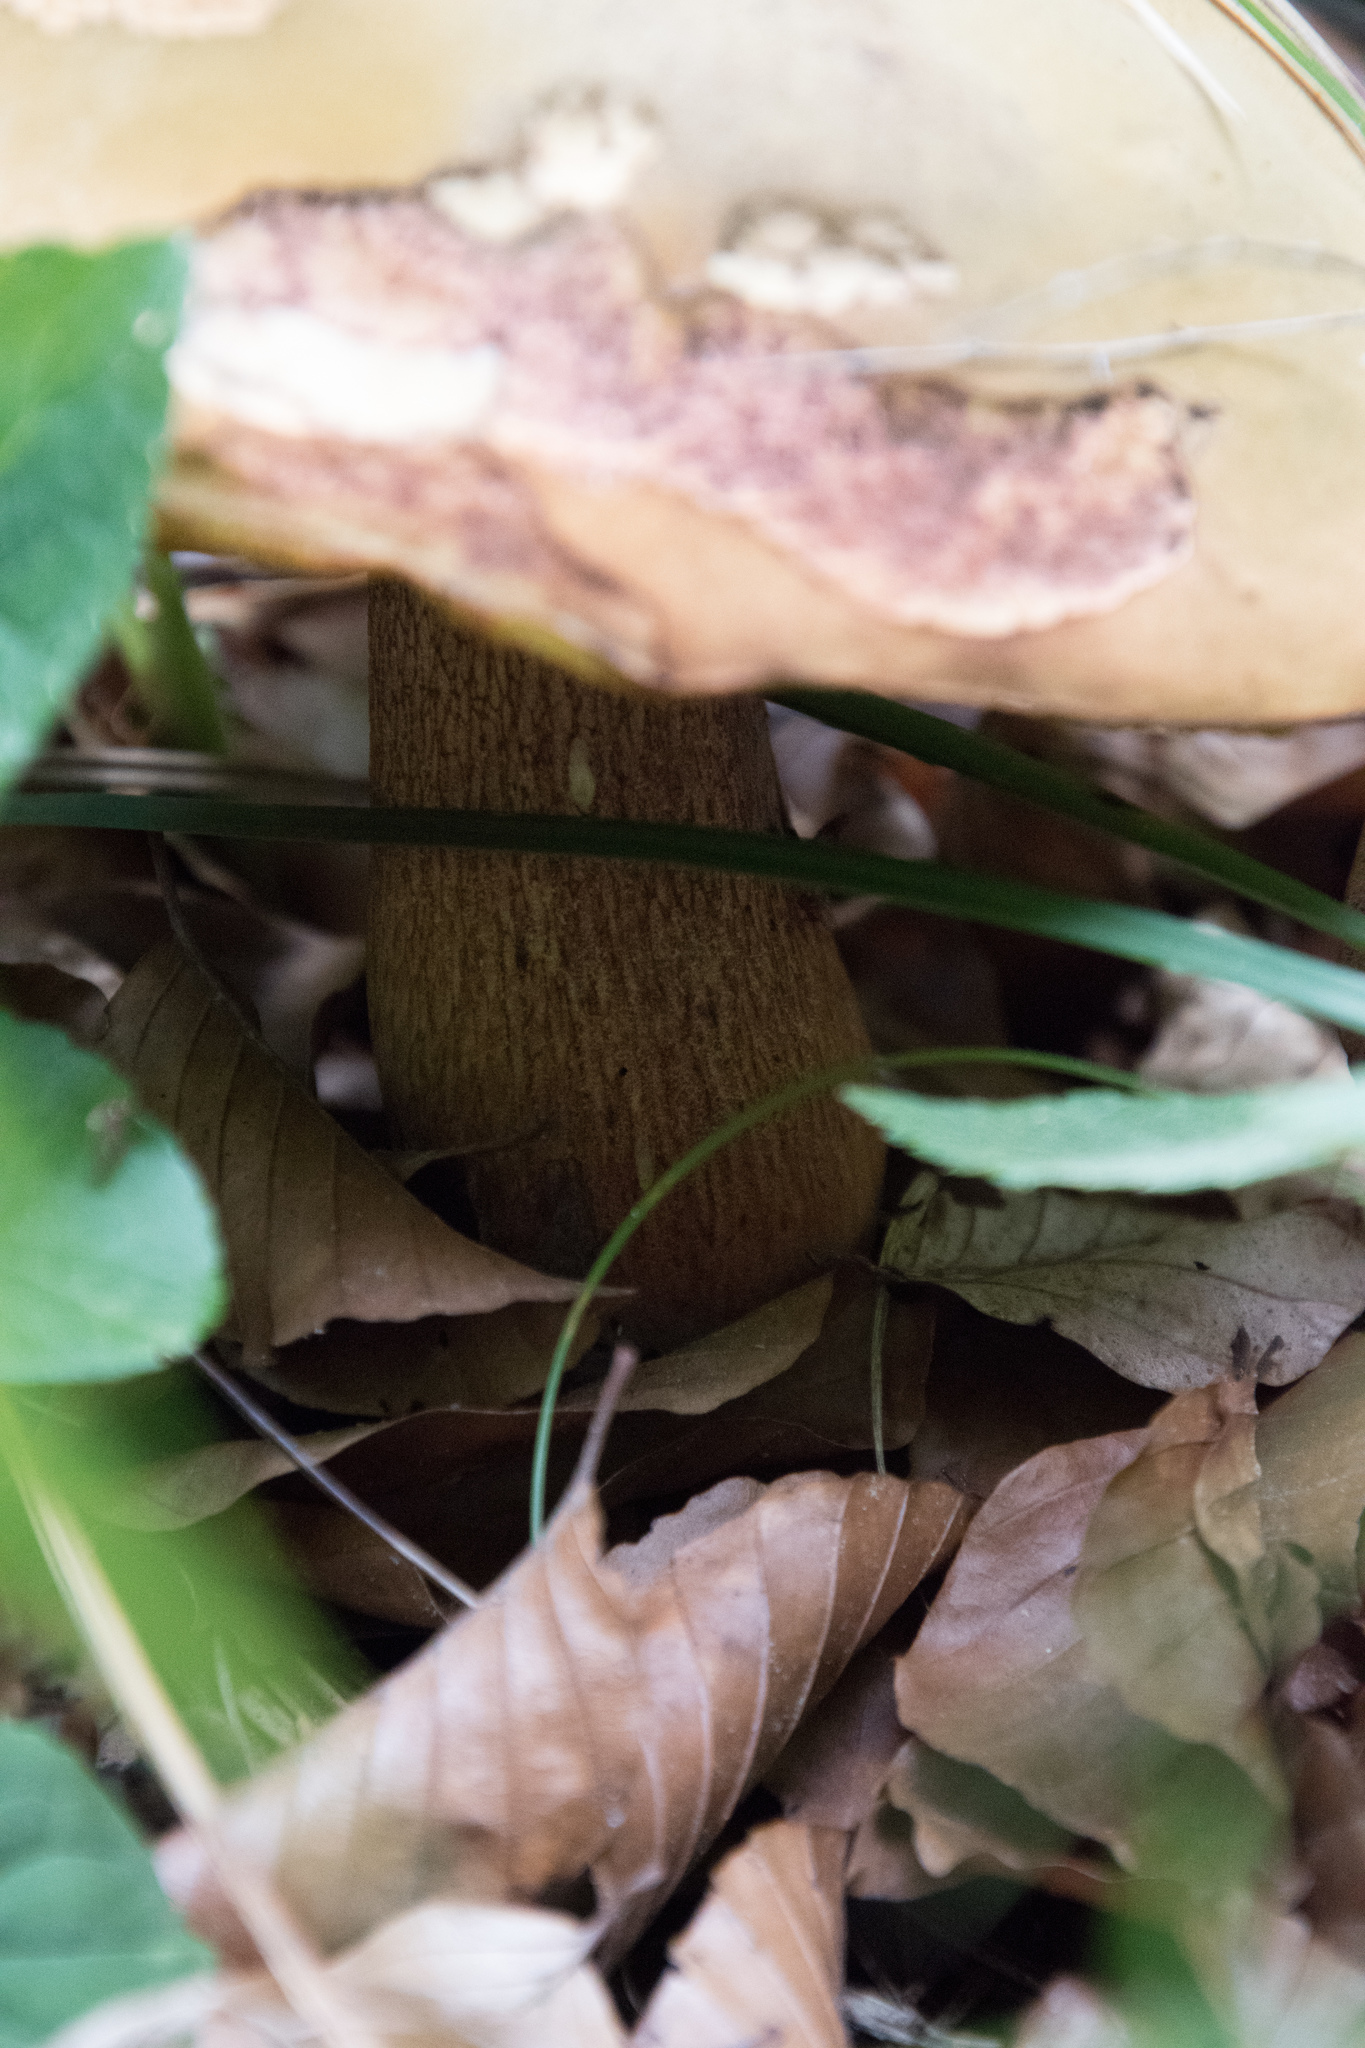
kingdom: Fungi
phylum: Basidiomycota
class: Agaricomycetes
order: Boletales
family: Boletaceae
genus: Suillellus
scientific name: Suillellus luridus
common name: Lurid bolete
